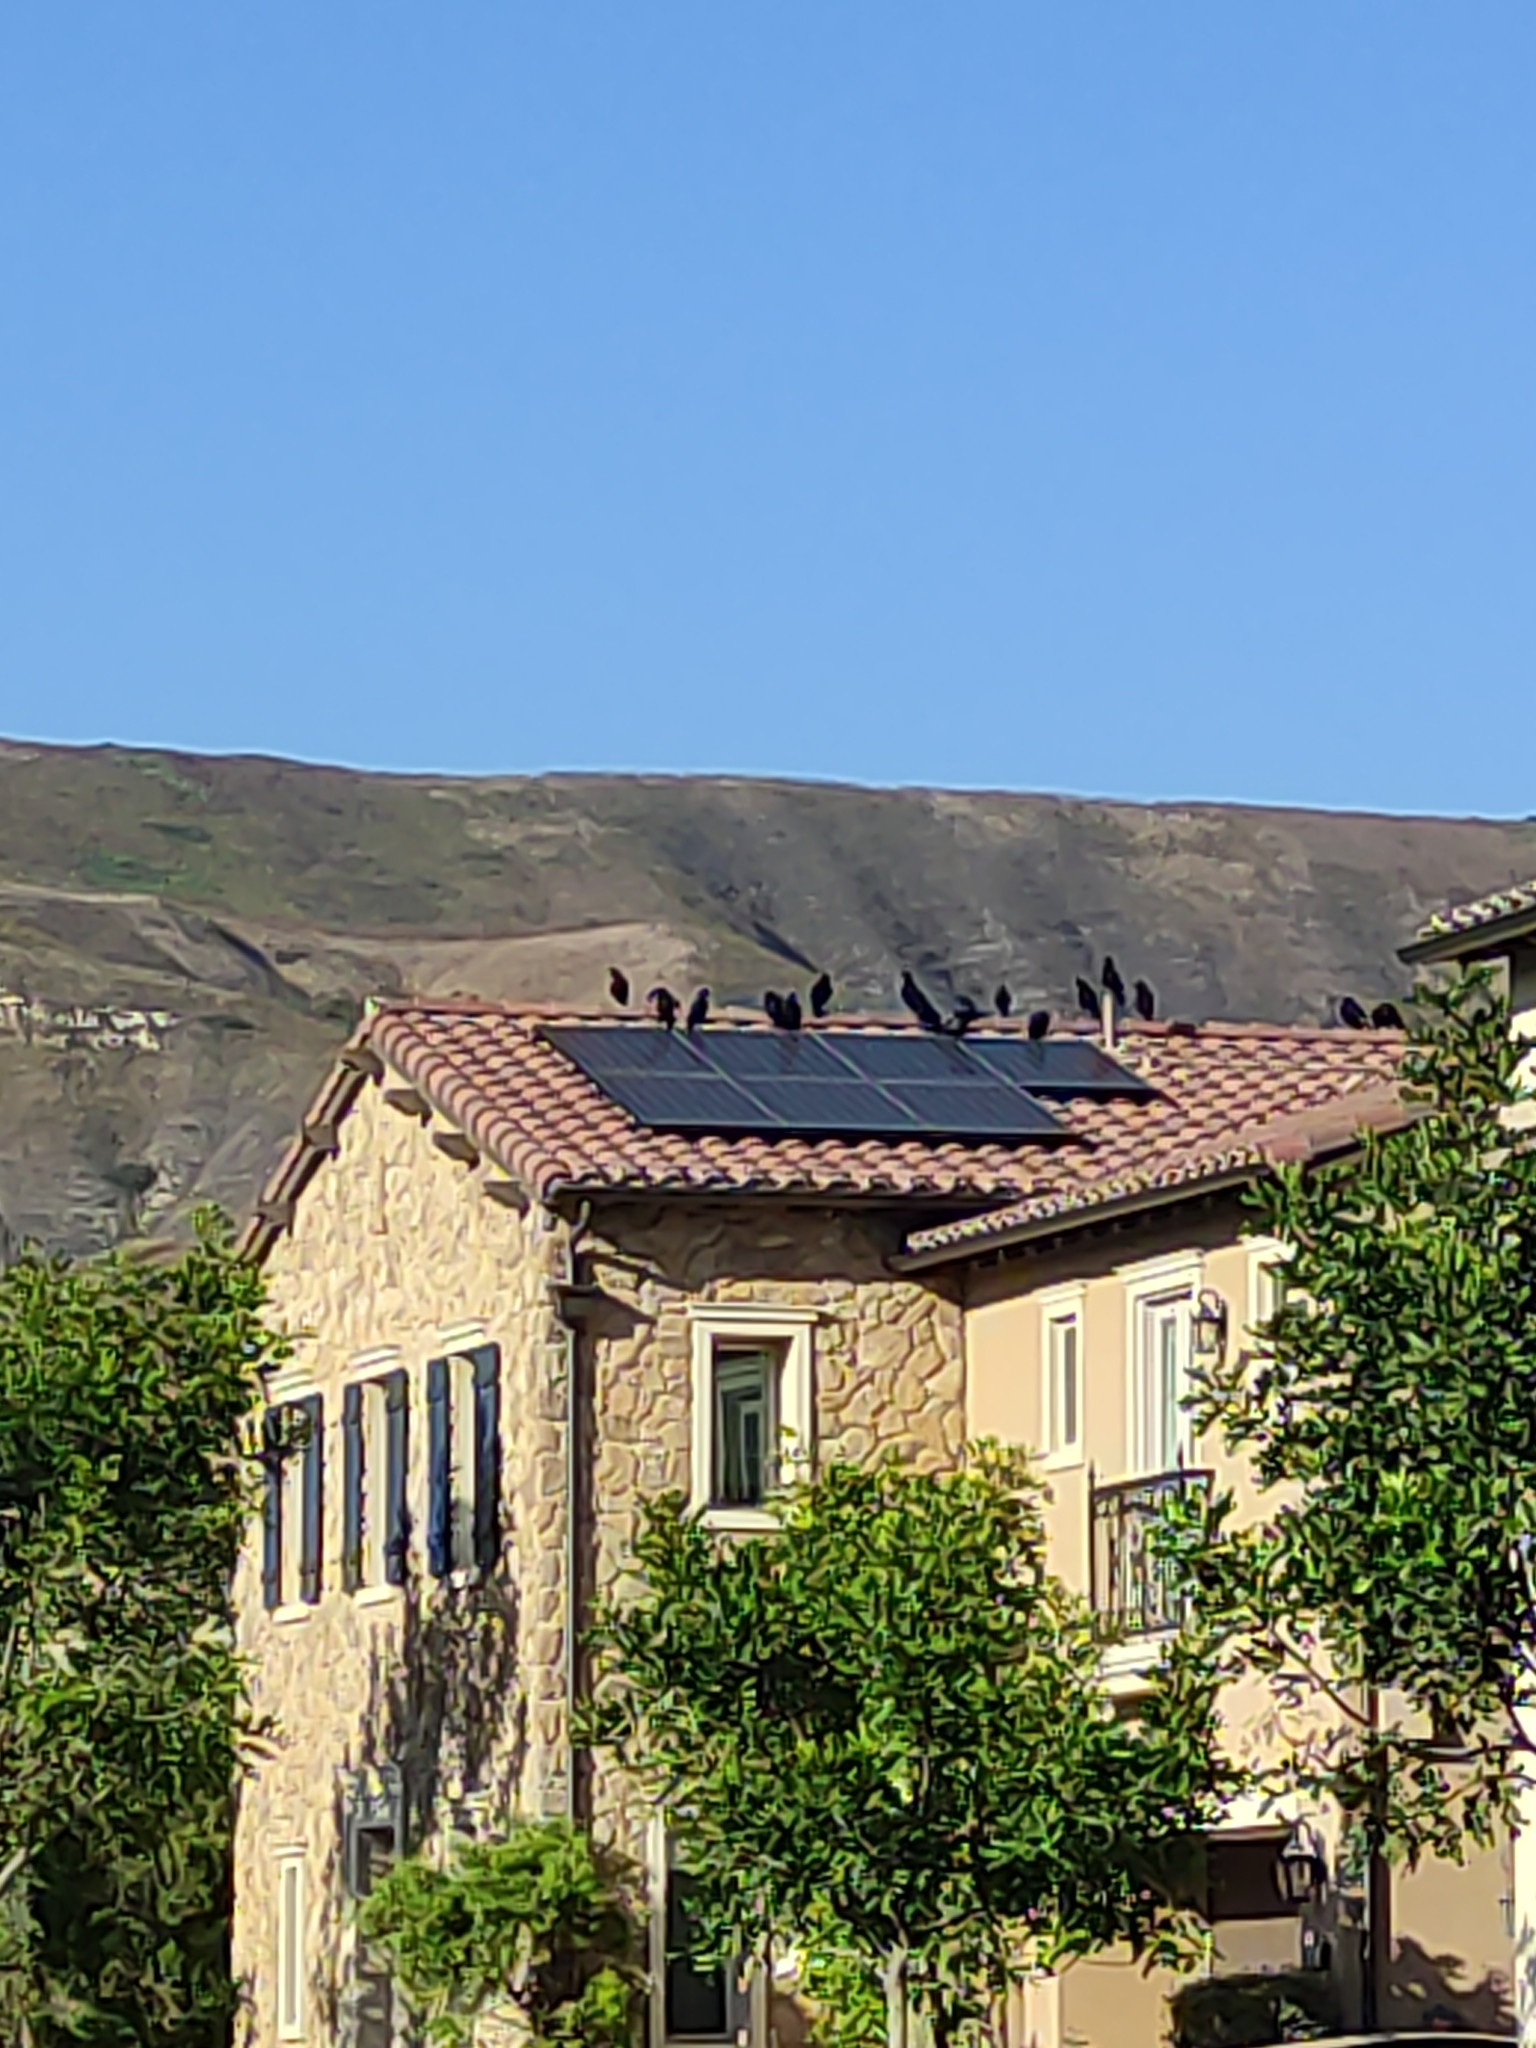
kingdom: Animalia
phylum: Chordata
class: Aves
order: Passeriformes
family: Corvidae
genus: Corvus
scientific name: Corvus brachyrhynchos
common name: American crow
